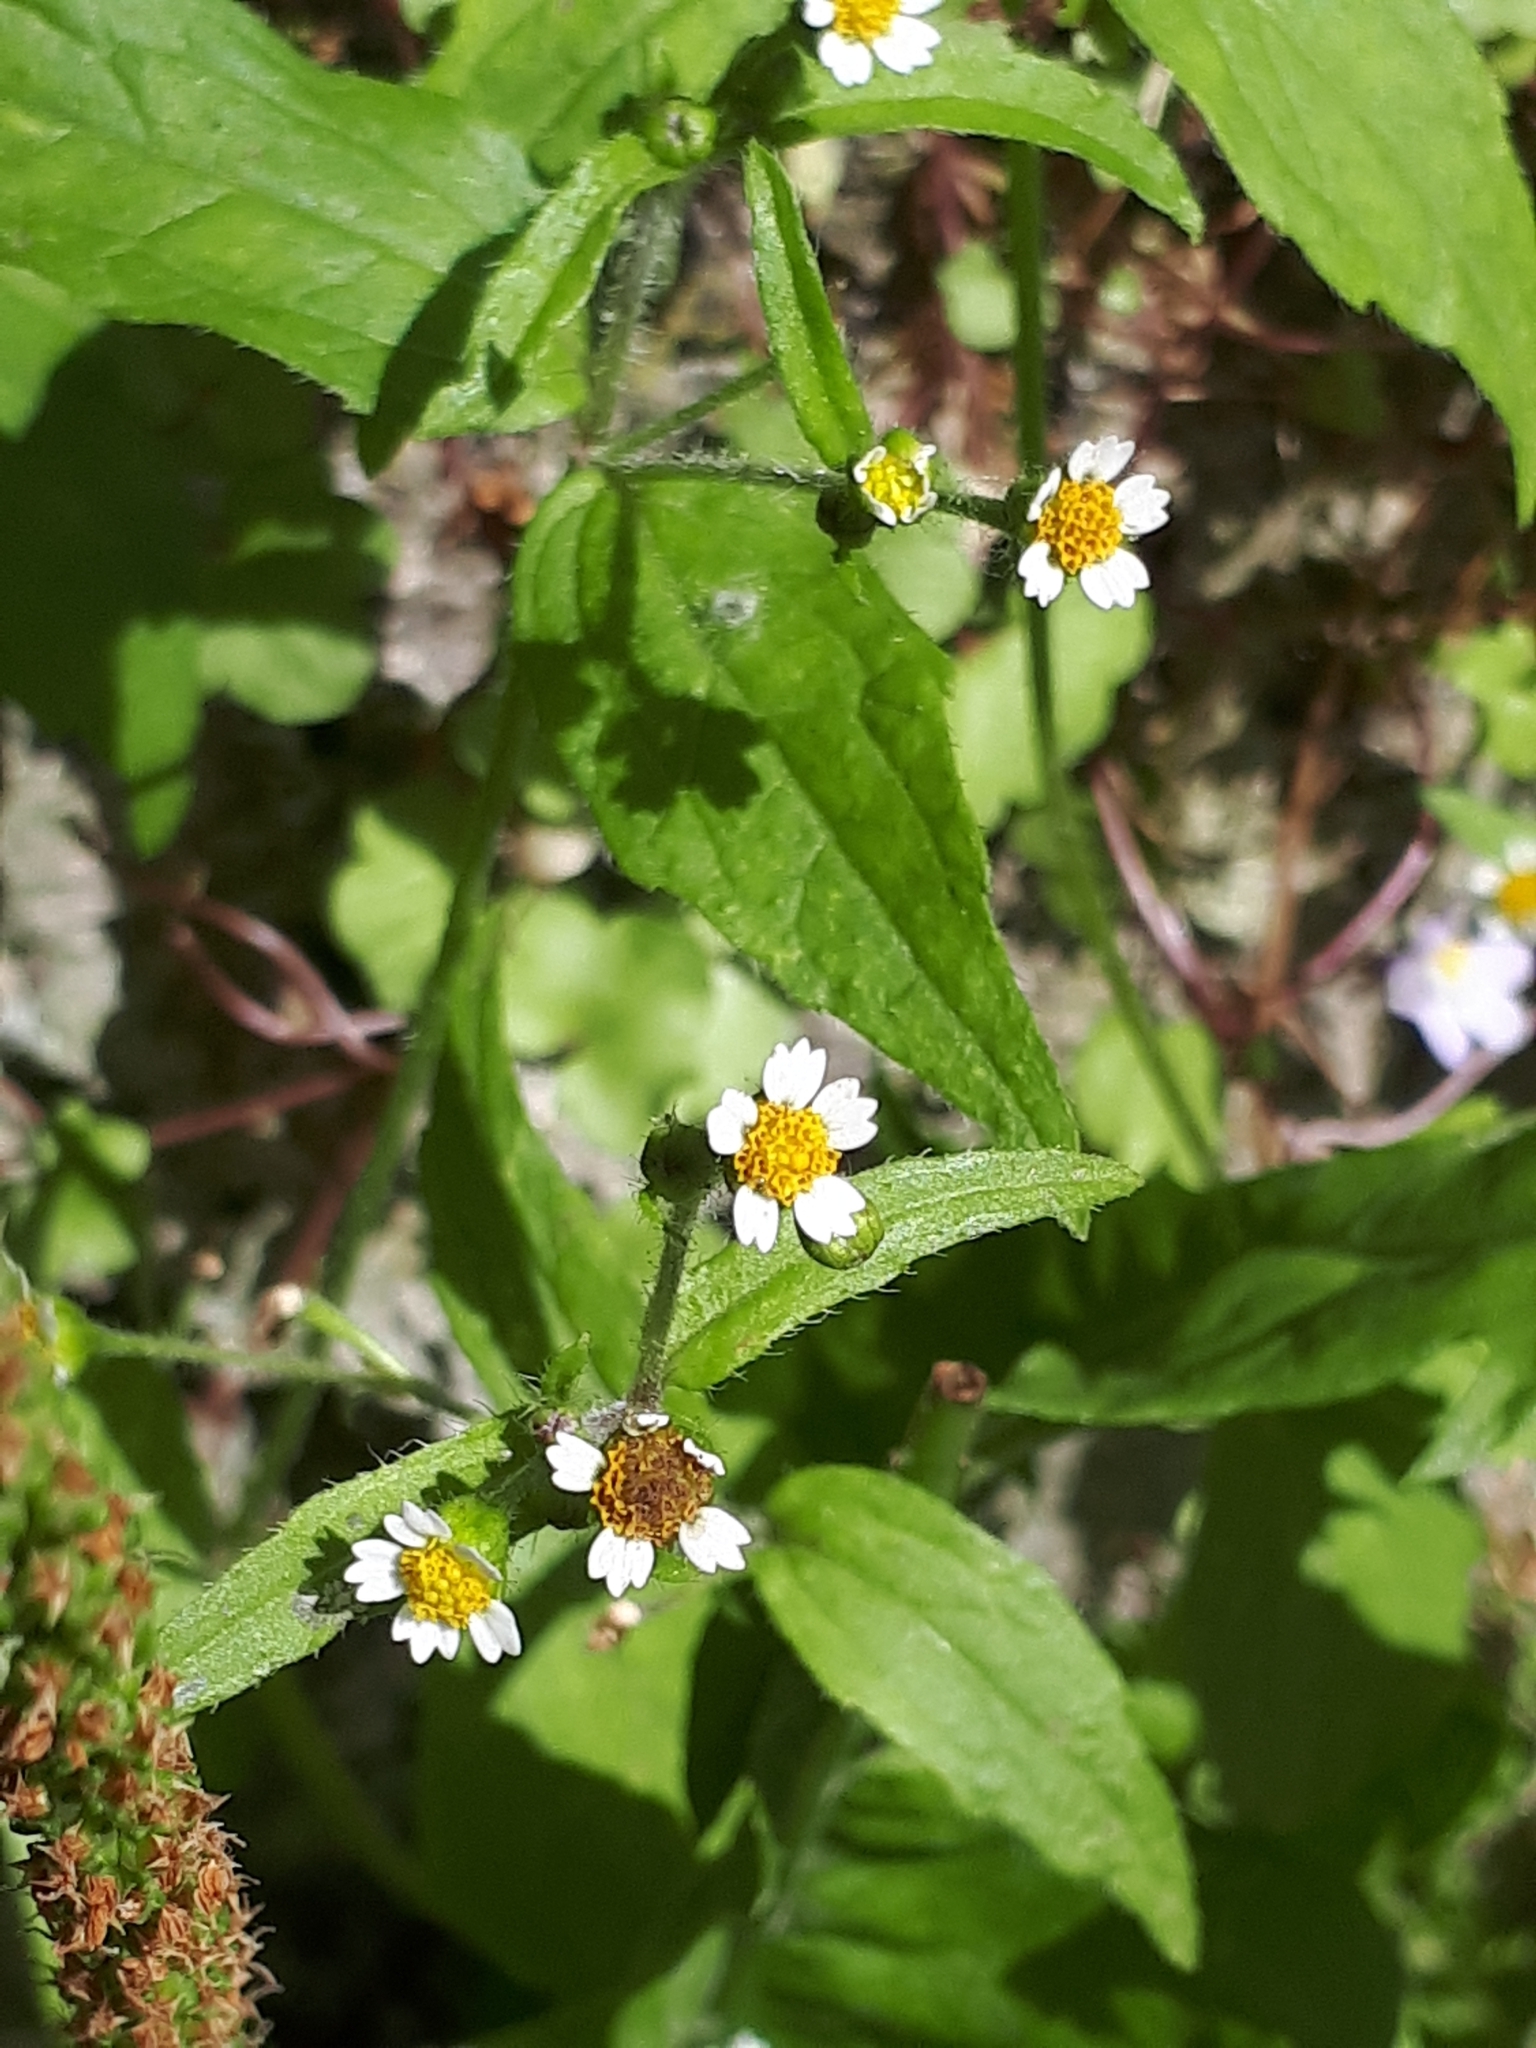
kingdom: Plantae
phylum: Tracheophyta
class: Magnoliopsida
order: Asterales
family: Asteraceae
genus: Galinsoga
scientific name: Galinsoga quadriradiata
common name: Shaggy soldier
